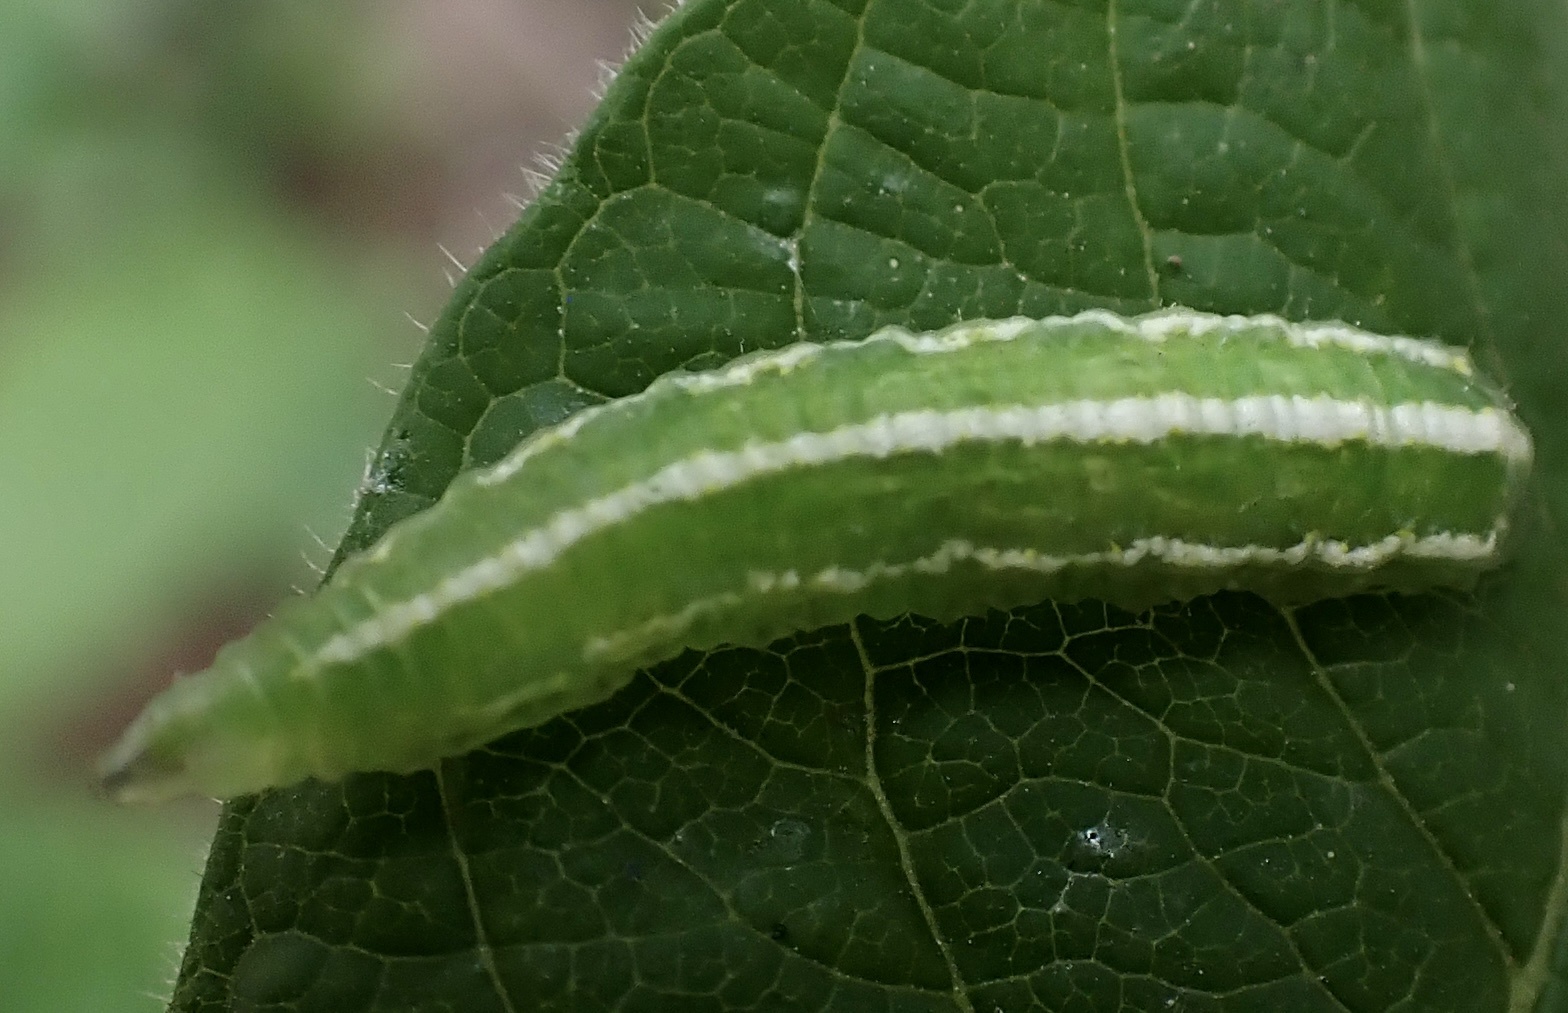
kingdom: Animalia
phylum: Arthropoda
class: Insecta
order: Diptera
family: Syrphidae
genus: Scaeva
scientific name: Scaeva affinis
